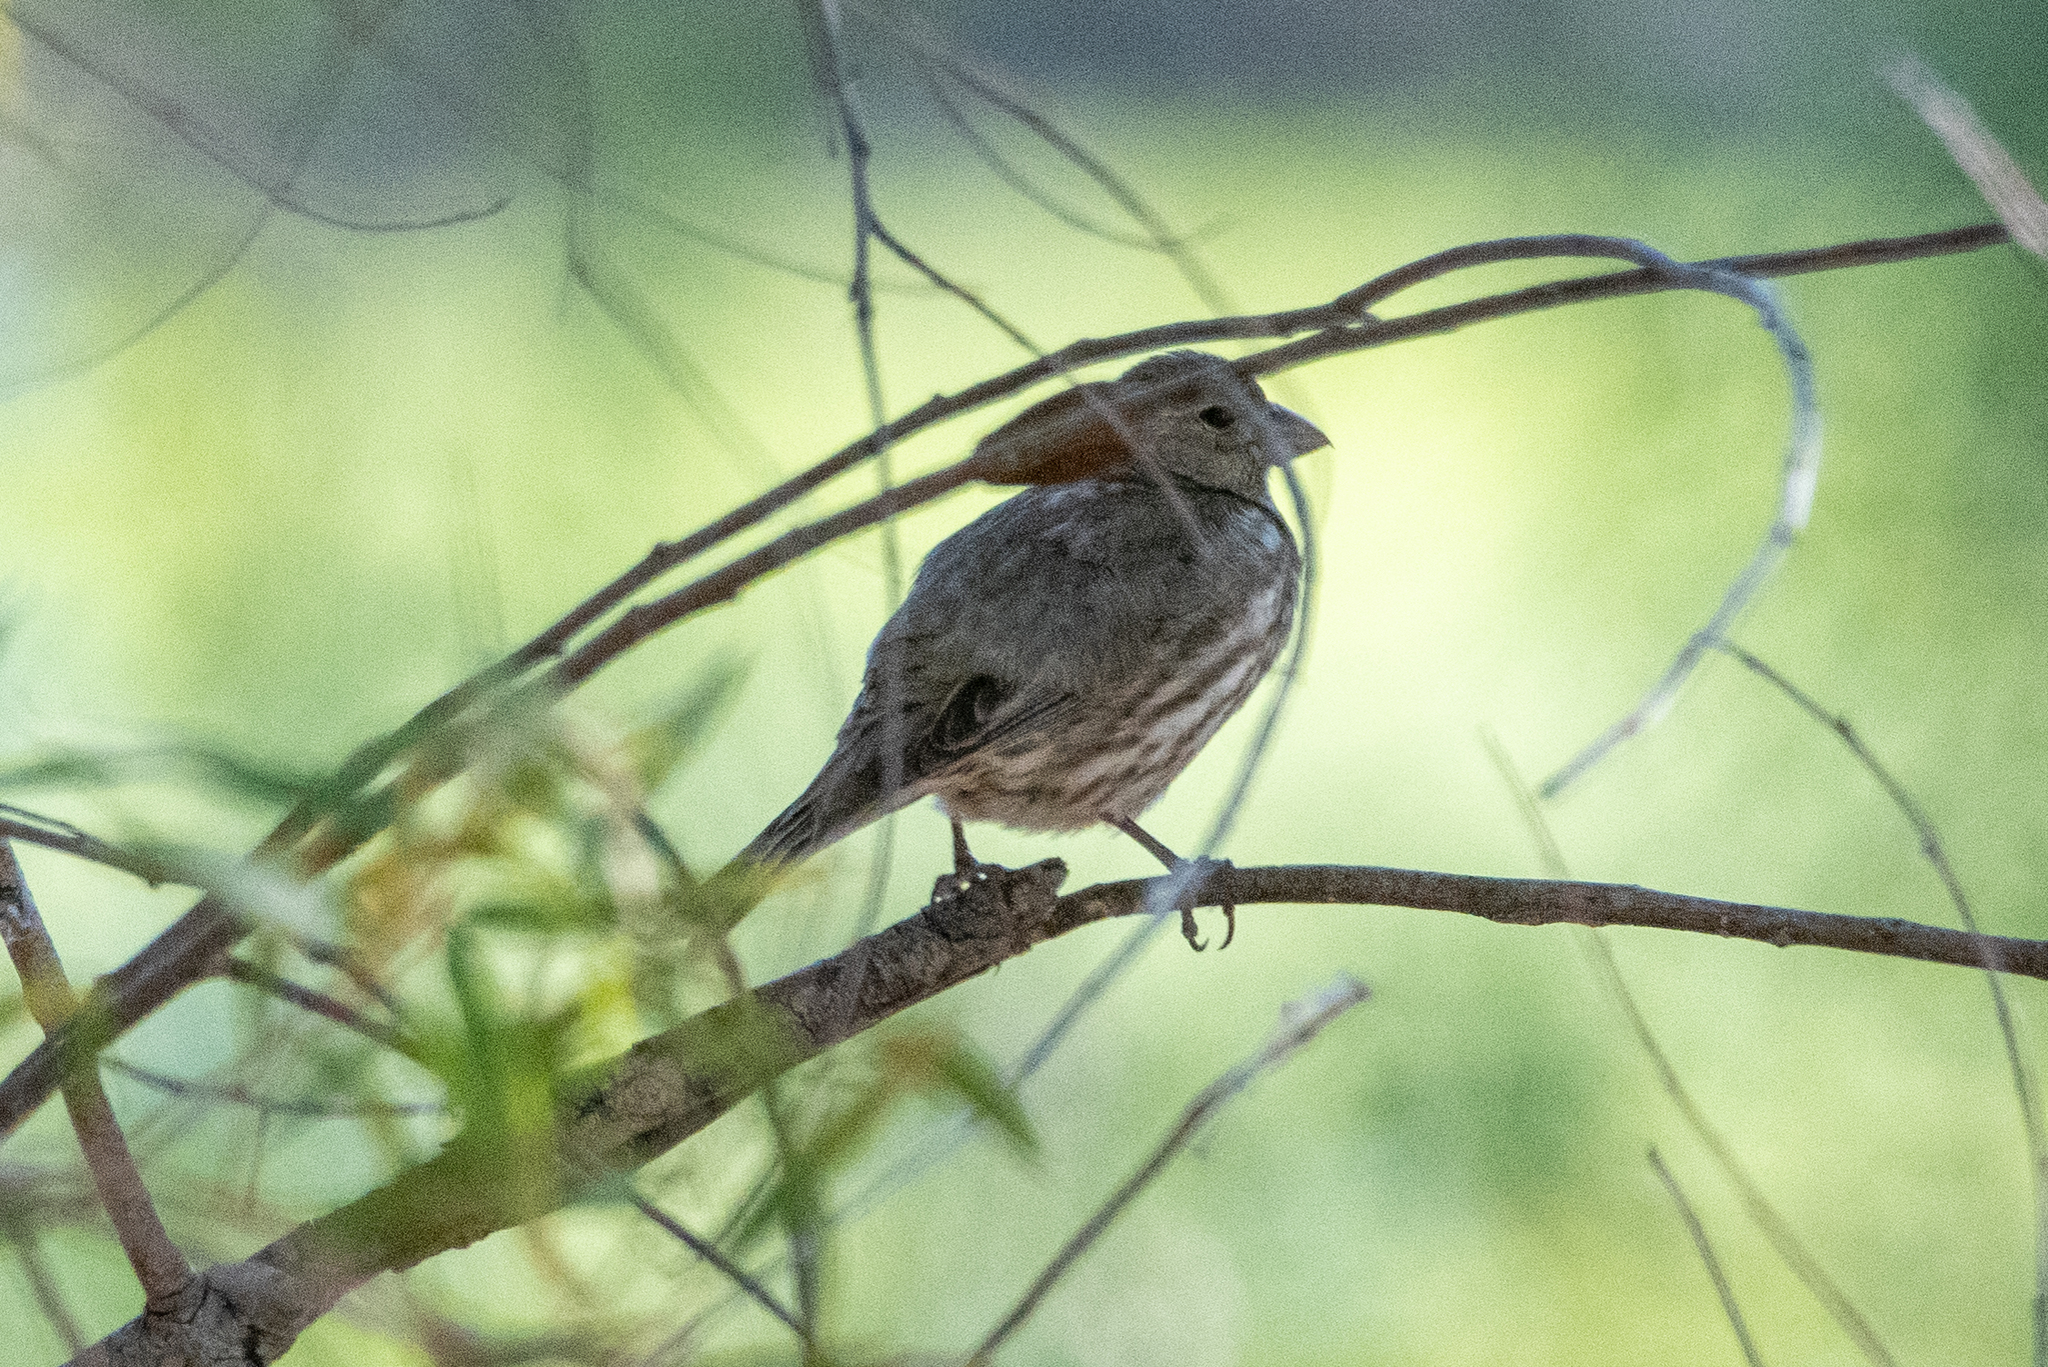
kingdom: Animalia
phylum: Chordata
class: Aves
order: Passeriformes
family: Fringillidae
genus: Haemorhous
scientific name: Haemorhous mexicanus
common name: House finch
